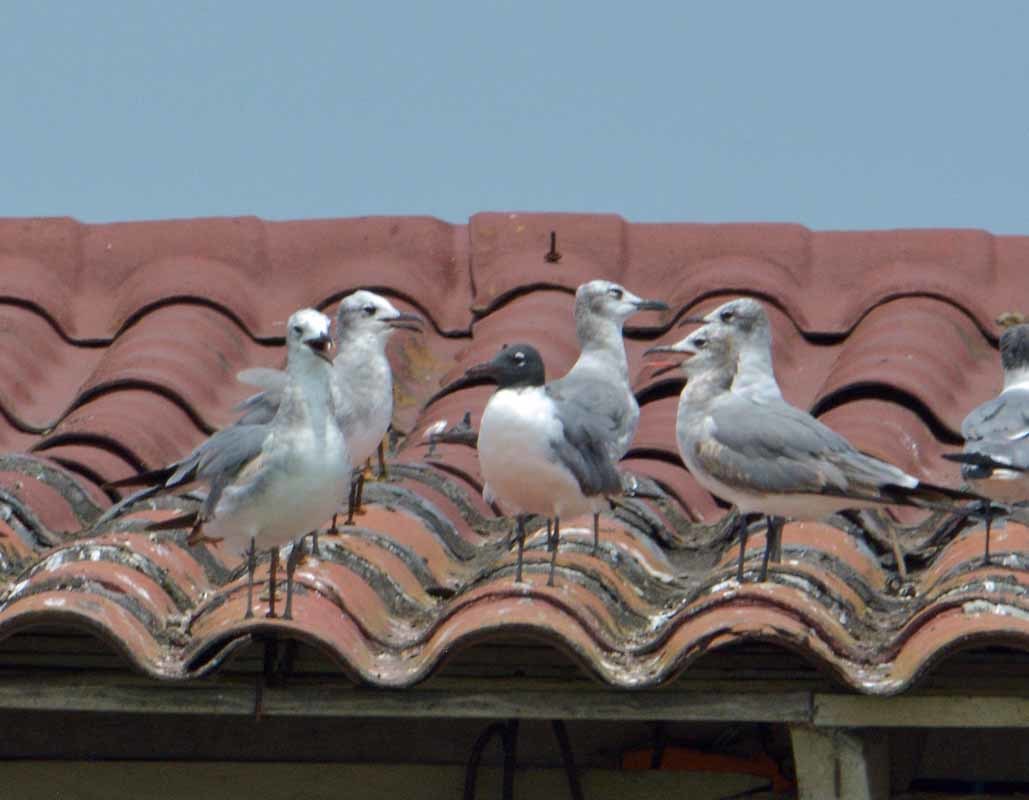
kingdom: Animalia
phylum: Chordata
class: Aves
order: Charadriiformes
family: Laridae
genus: Leucophaeus
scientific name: Leucophaeus atricilla
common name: Laughing gull
